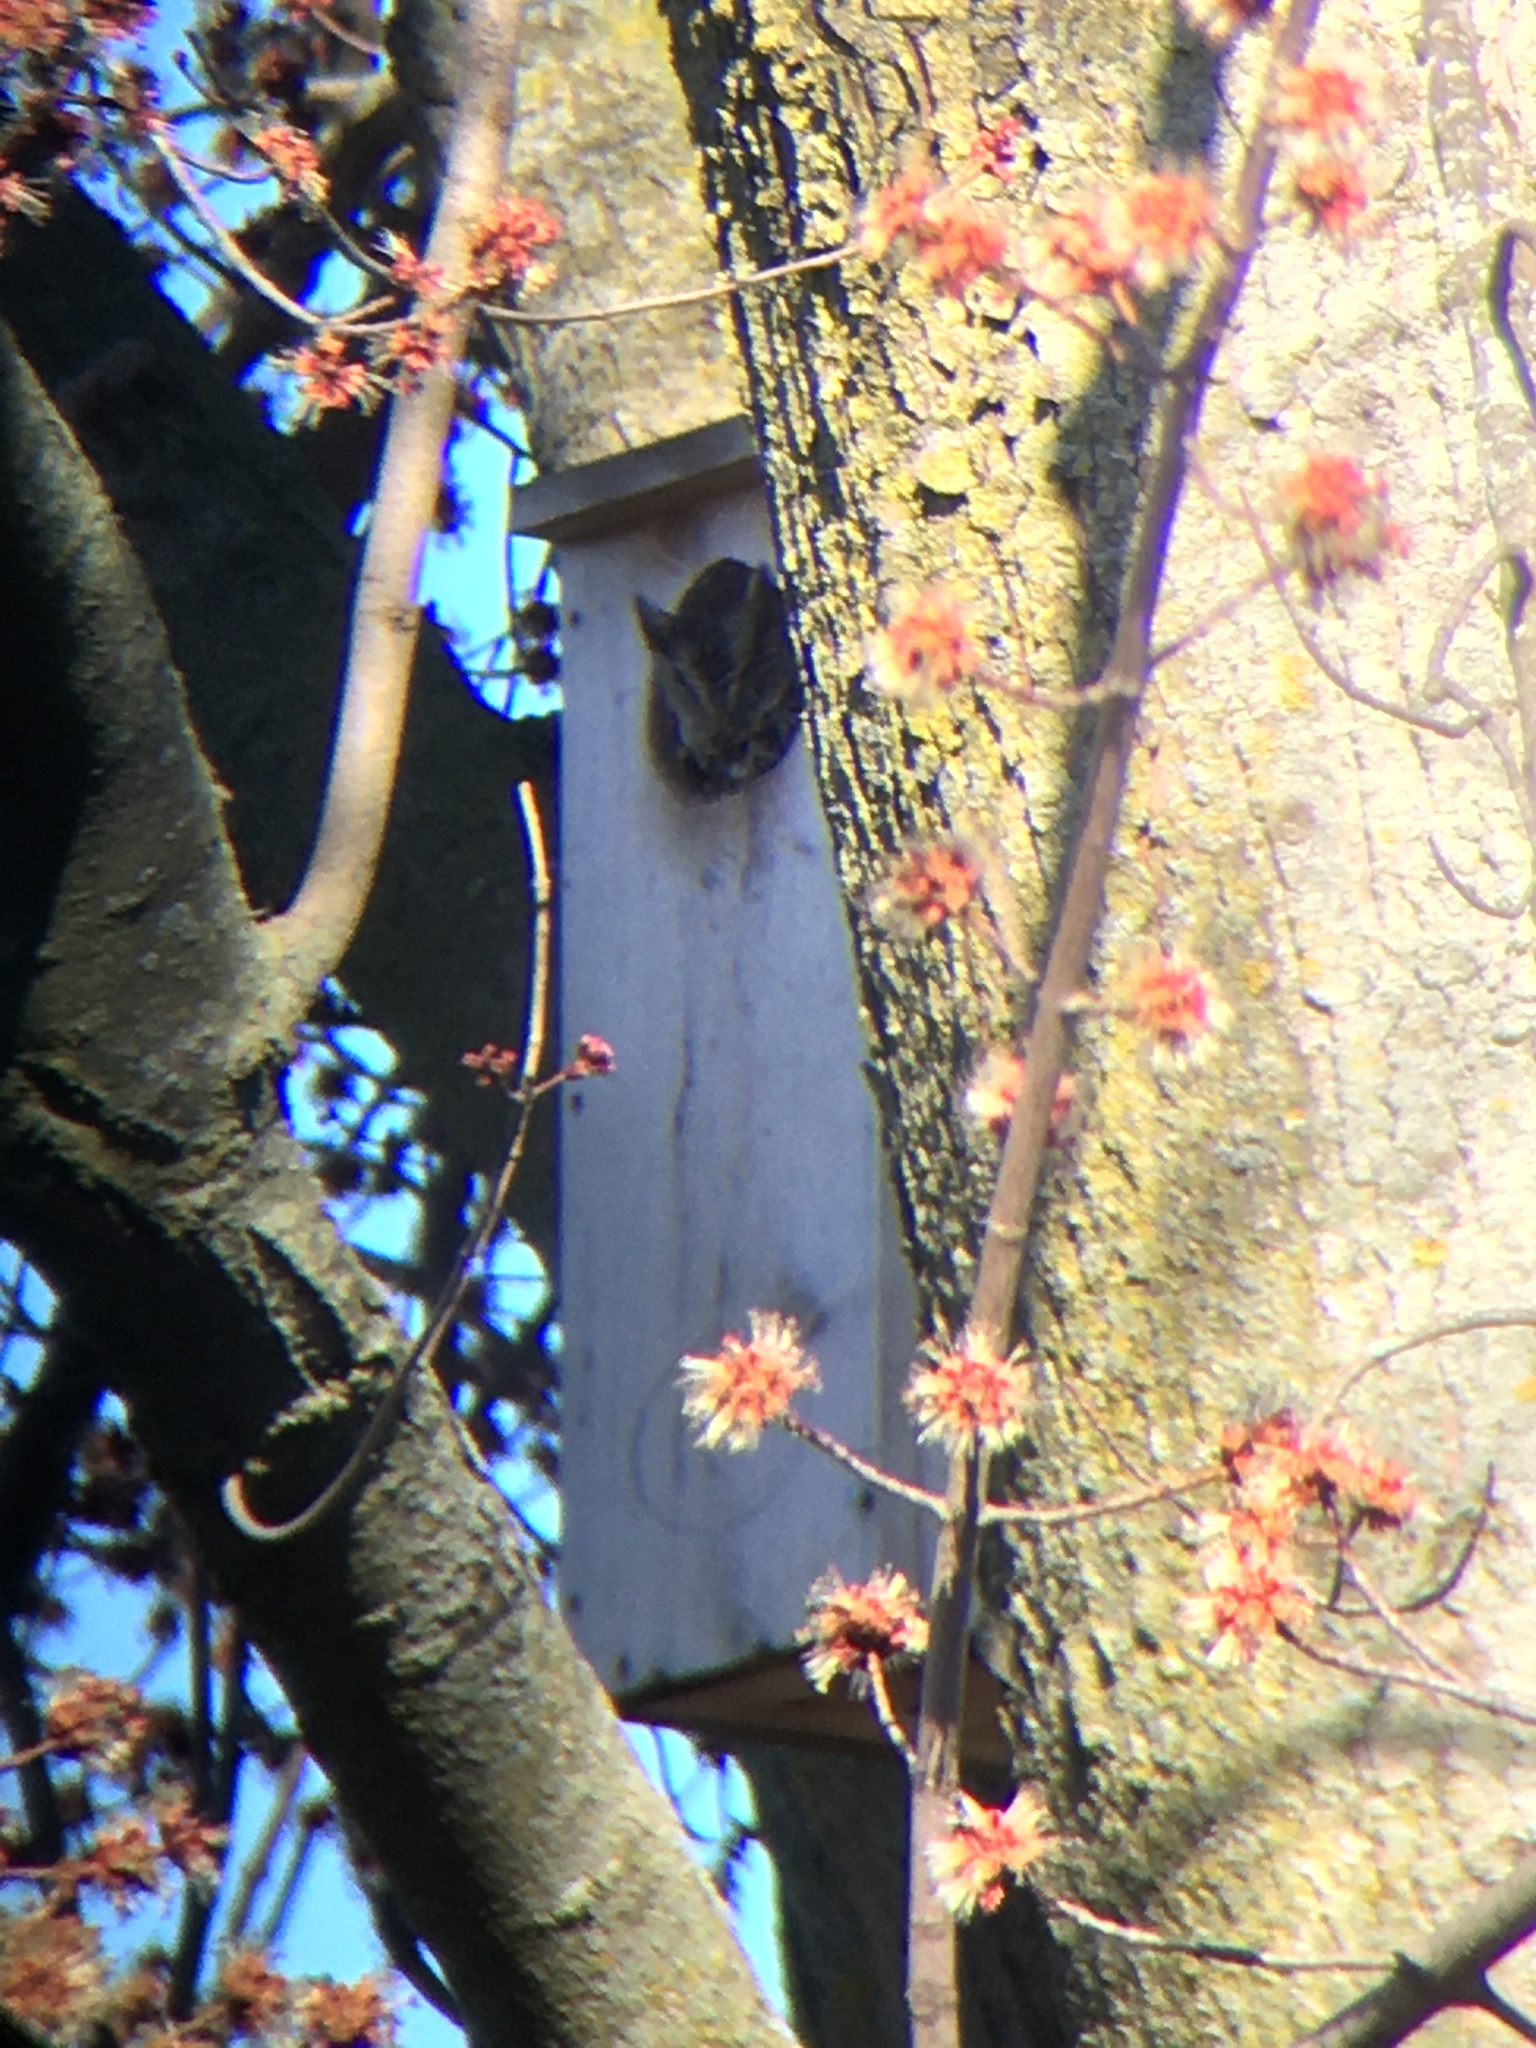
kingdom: Animalia
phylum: Chordata
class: Aves
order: Strigiformes
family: Strigidae
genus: Megascops
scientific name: Megascops asio
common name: Eastern screech-owl
